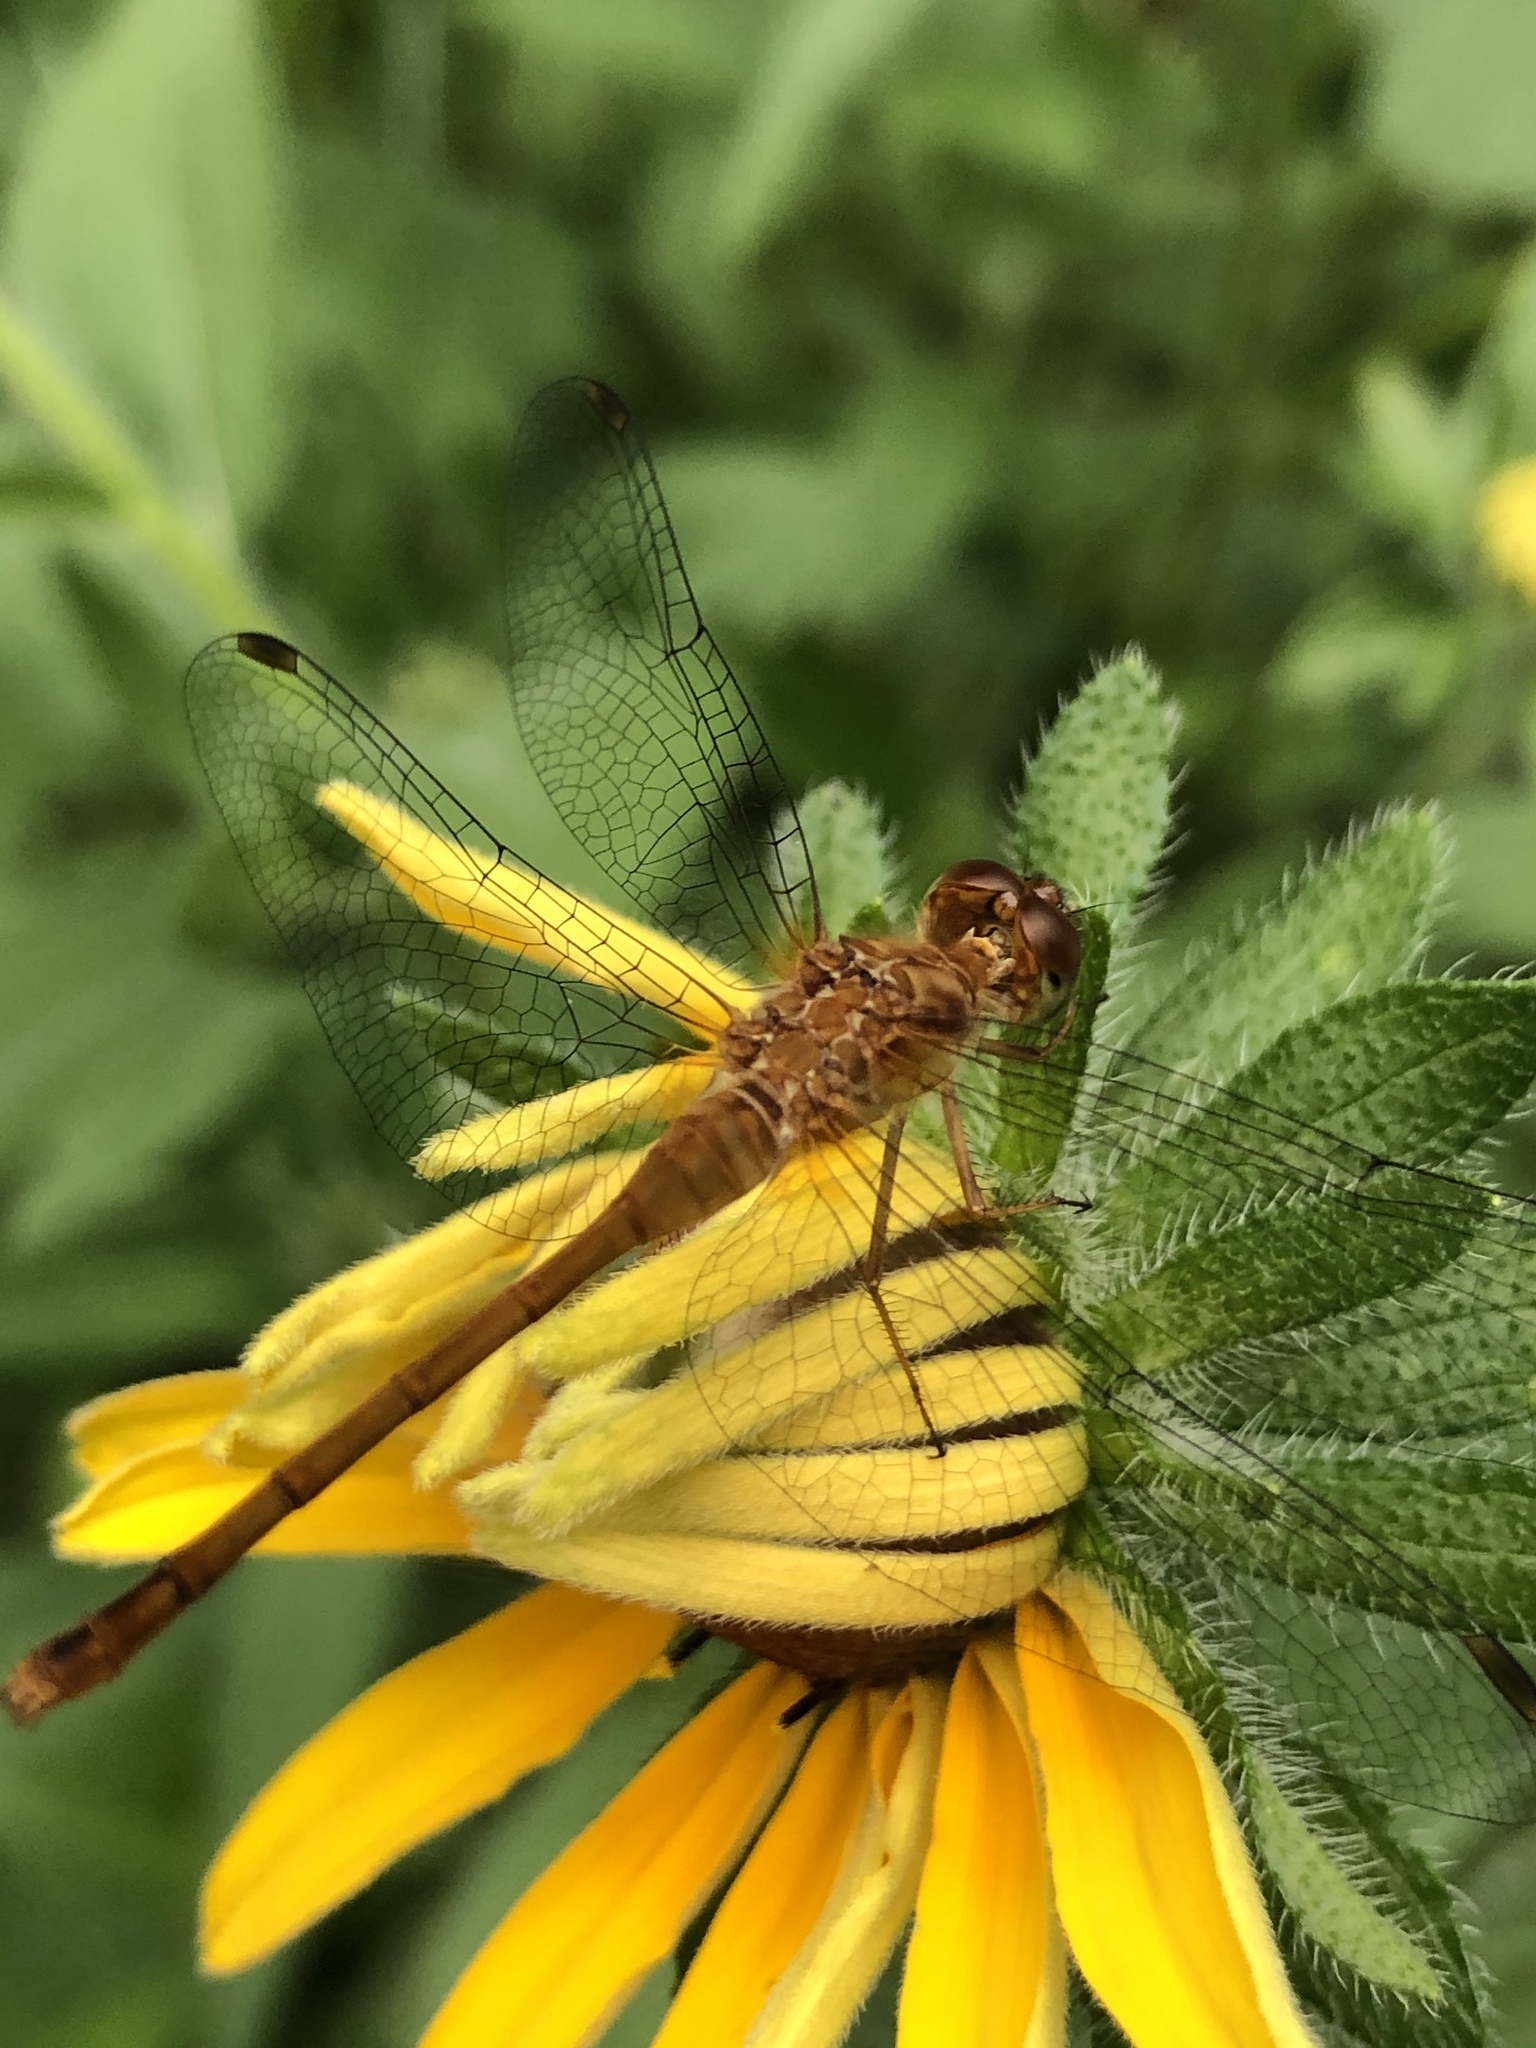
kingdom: Animalia
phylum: Arthropoda
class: Insecta
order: Odonata
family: Libellulidae
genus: Sympetrum
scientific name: Sympetrum vicinum
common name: Autumn meadowhawk
